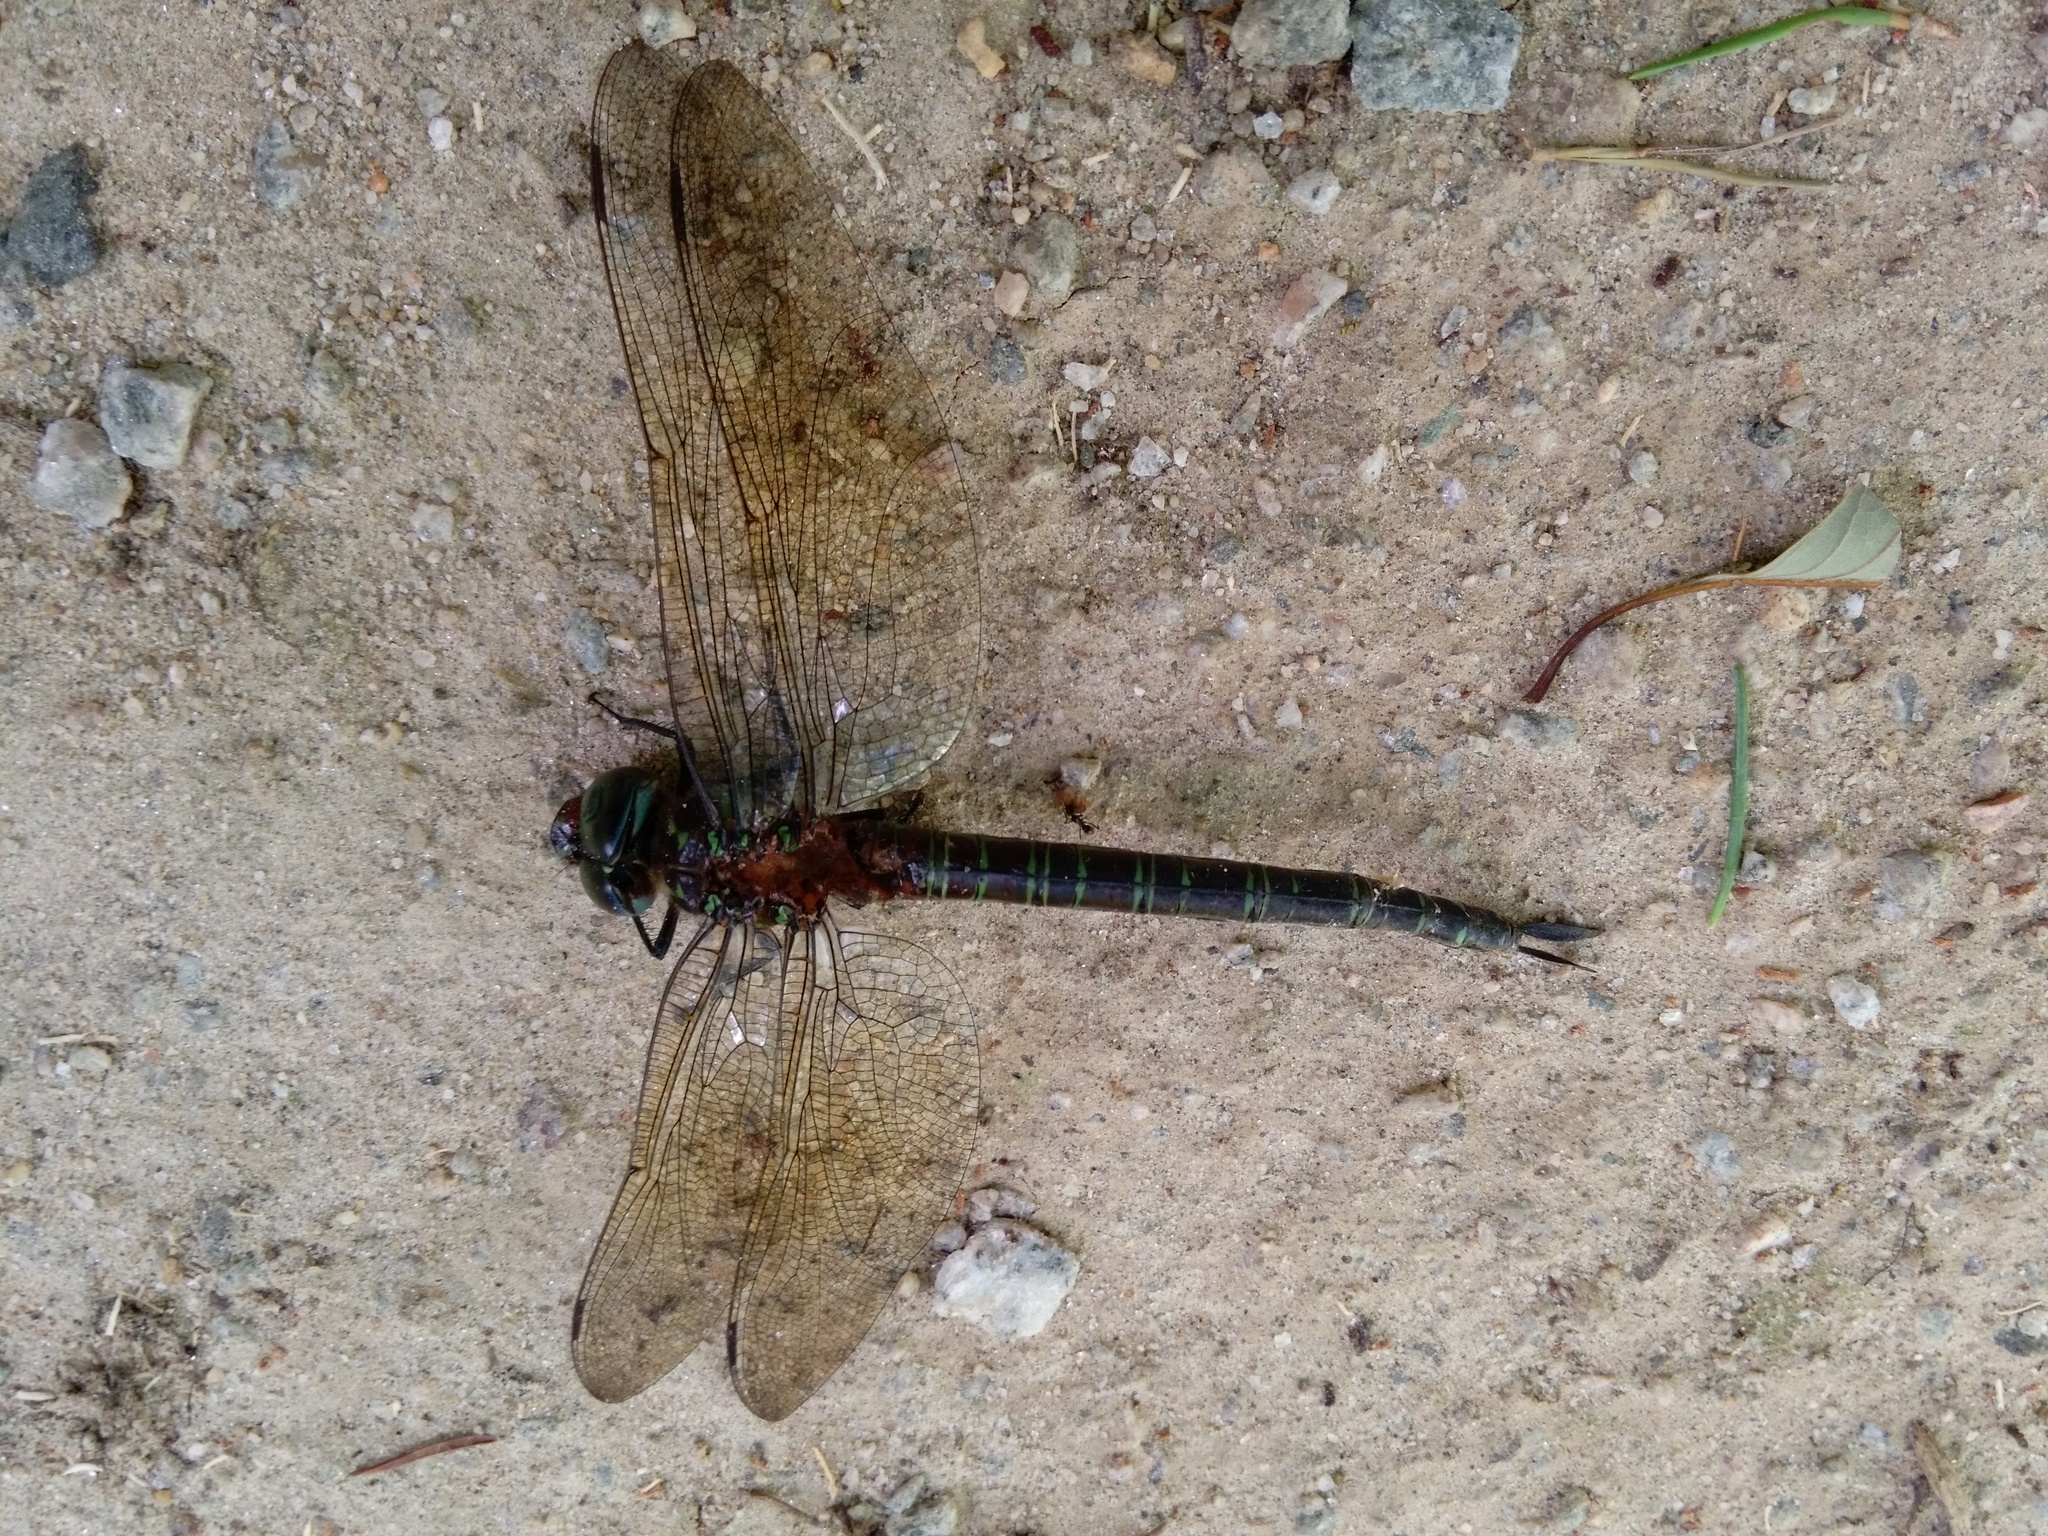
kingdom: Animalia
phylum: Arthropoda
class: Insecta
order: Odonata
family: Aeshnidae
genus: Epiaeschna
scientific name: Epiaeschna heros
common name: Swamp darner
